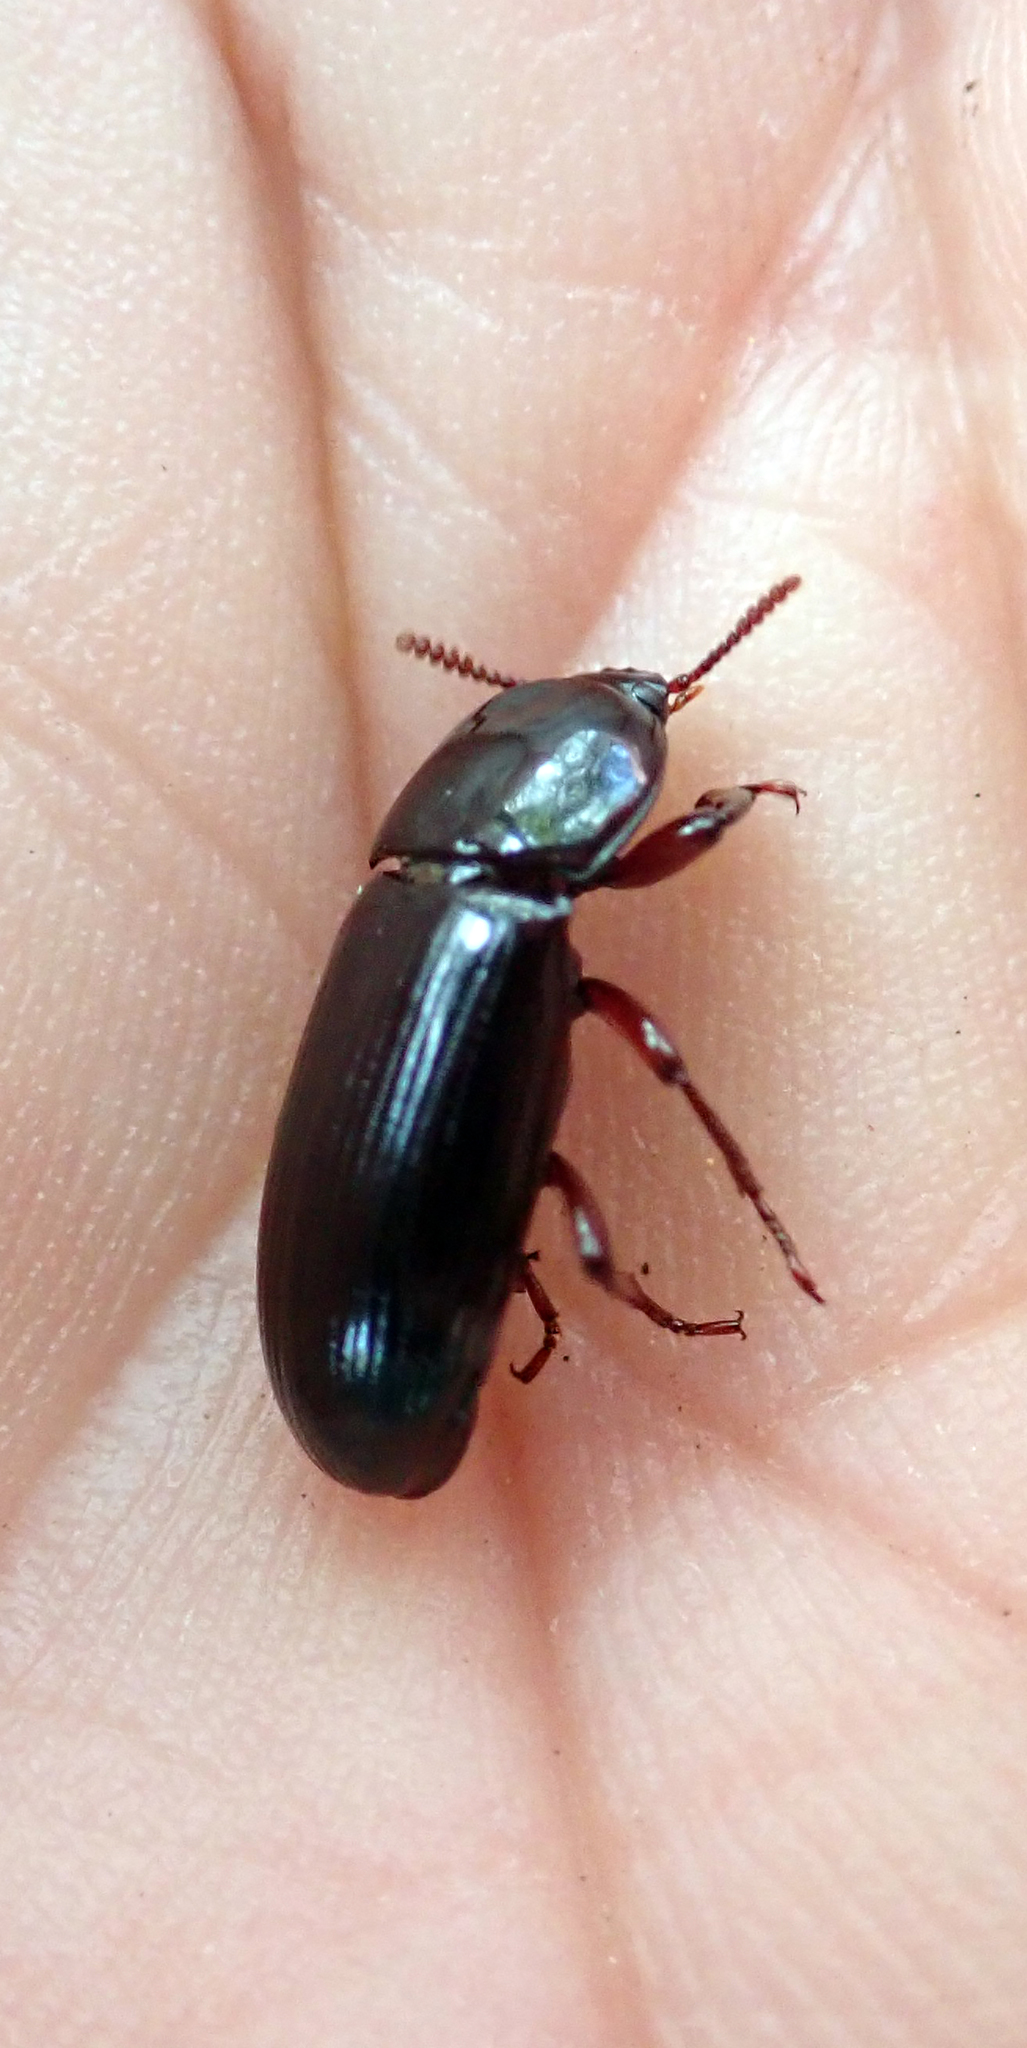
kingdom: Animalia
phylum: Arthropoda
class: Insecta
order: Coleoptera
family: Tenebrionidae
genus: Uloma
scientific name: Uloma tenebrionoides
